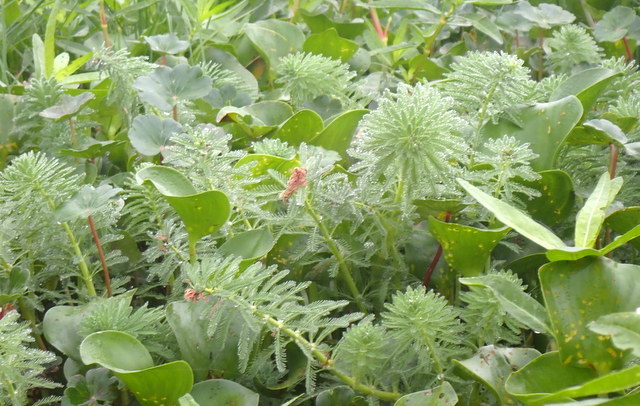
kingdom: Plantae
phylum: Tracheophyta
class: Magnoliopsida
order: Saxifragales
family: Haloragaceae
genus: Myriophyllum
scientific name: Myriophyllum aquaticum
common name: Parrot's feather
